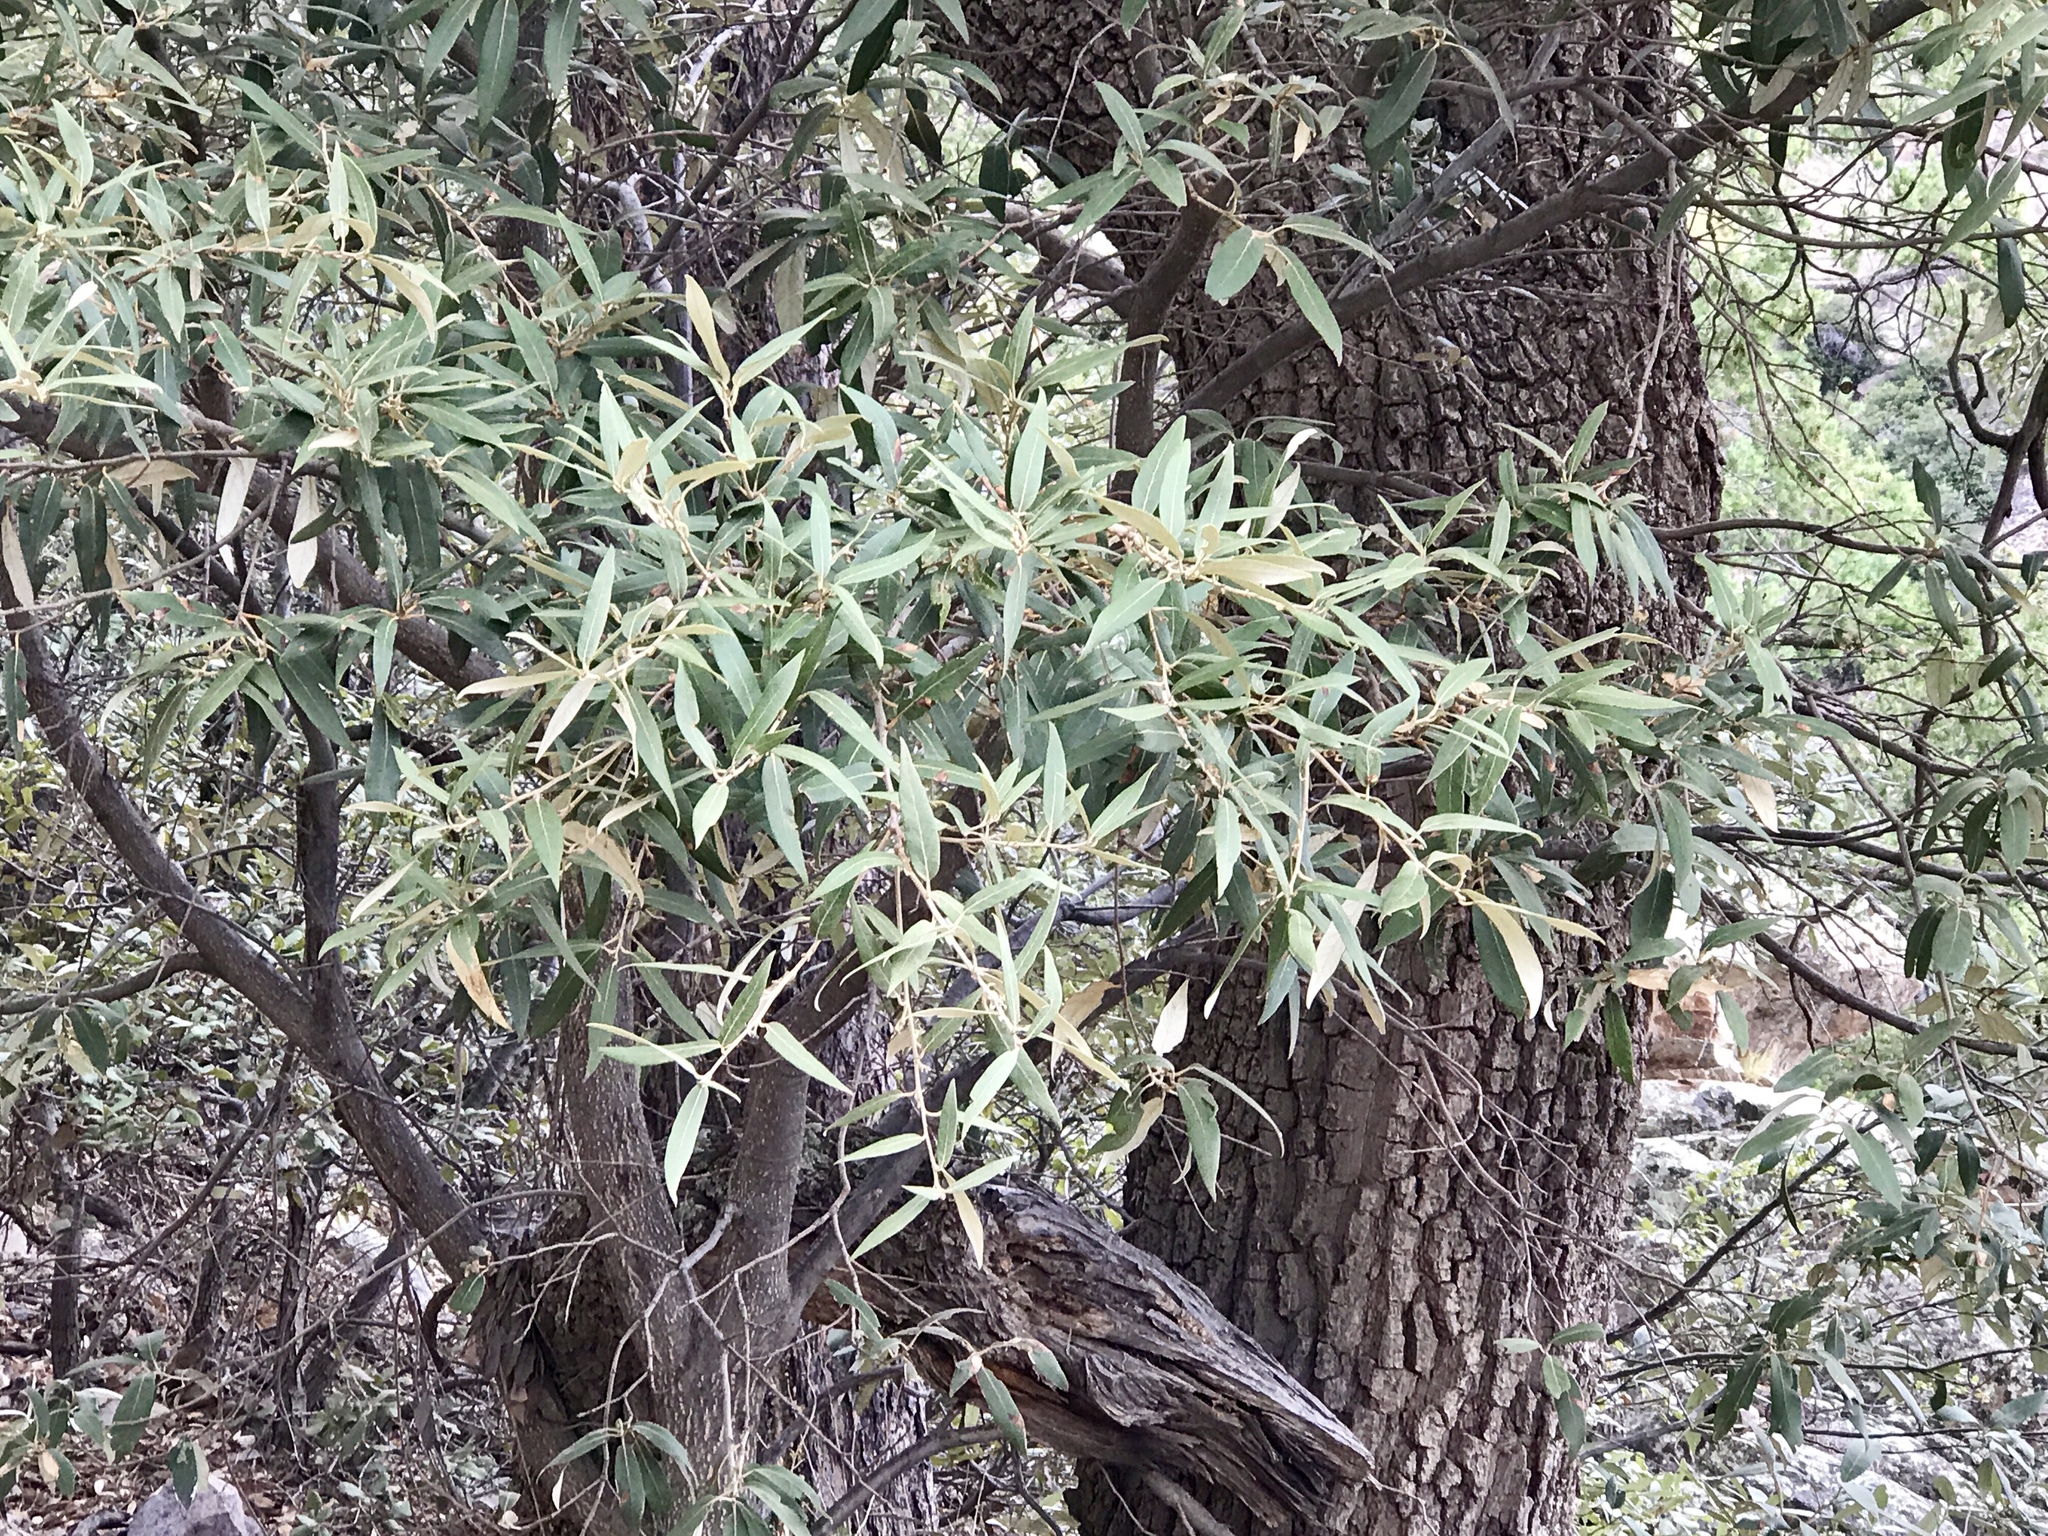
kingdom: Plantae
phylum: Tracheophyta
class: Magnoliopsida
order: Fagales
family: Fagaceae
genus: Quercus
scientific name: Quercus hypoleucoides
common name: Silverleaf oak
